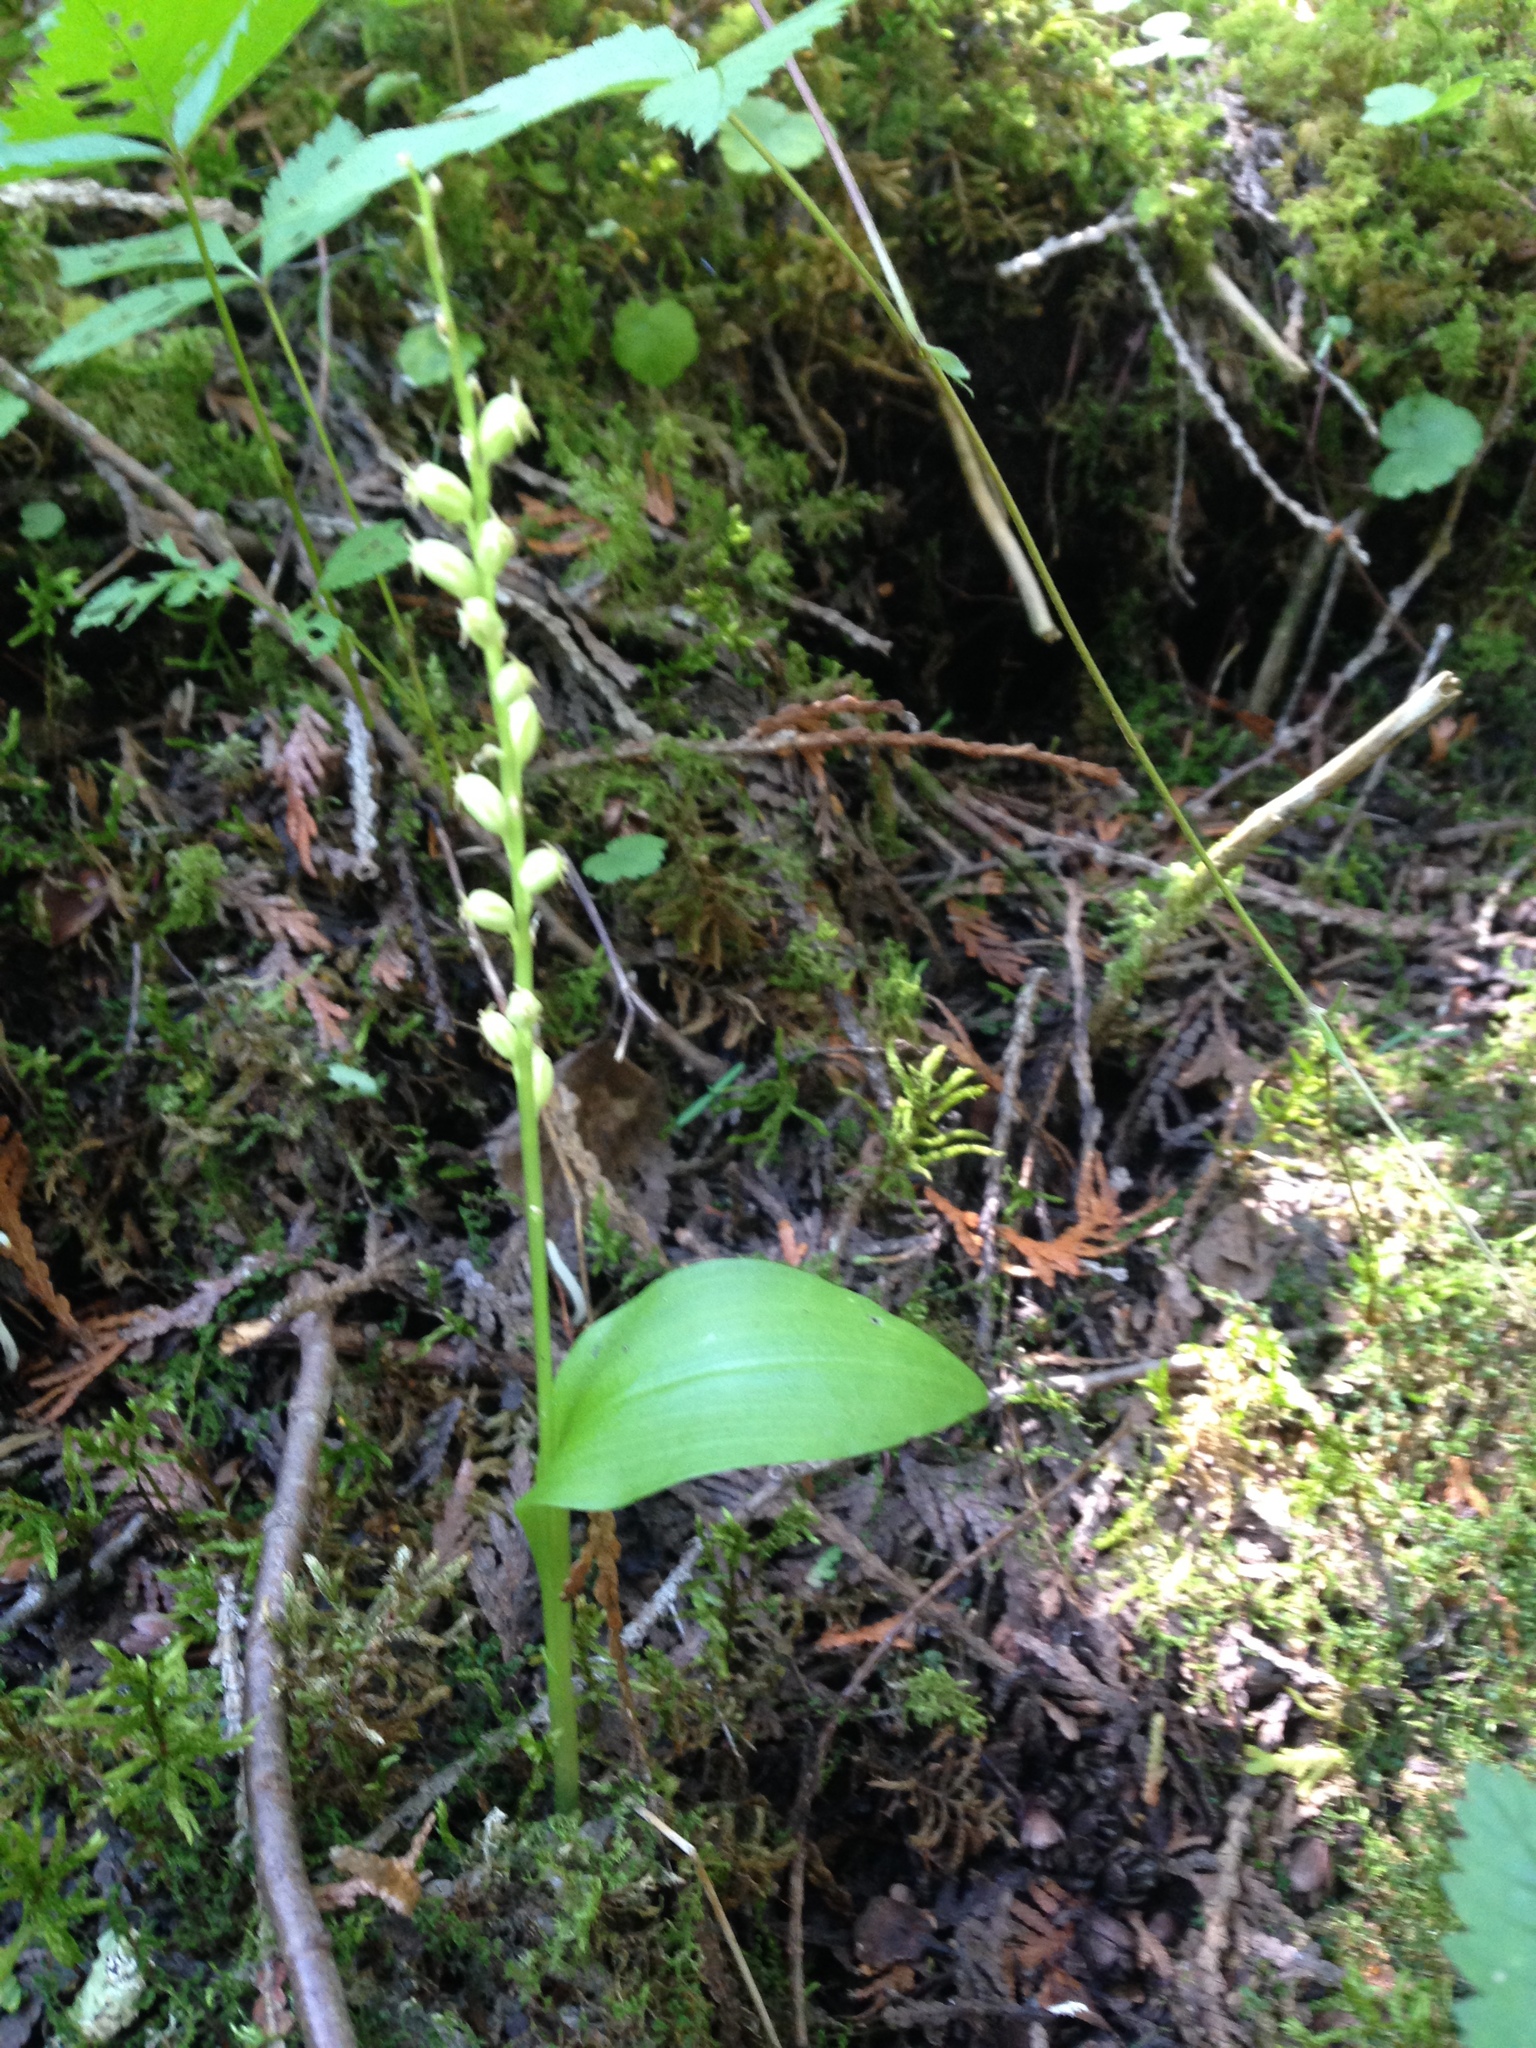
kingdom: Plantae
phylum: Tracheophyta
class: Liliopsida
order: Asparagales
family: Orchidaceae
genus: Malaxis
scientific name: Malaxis monophyllos
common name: White adder's-mouth
